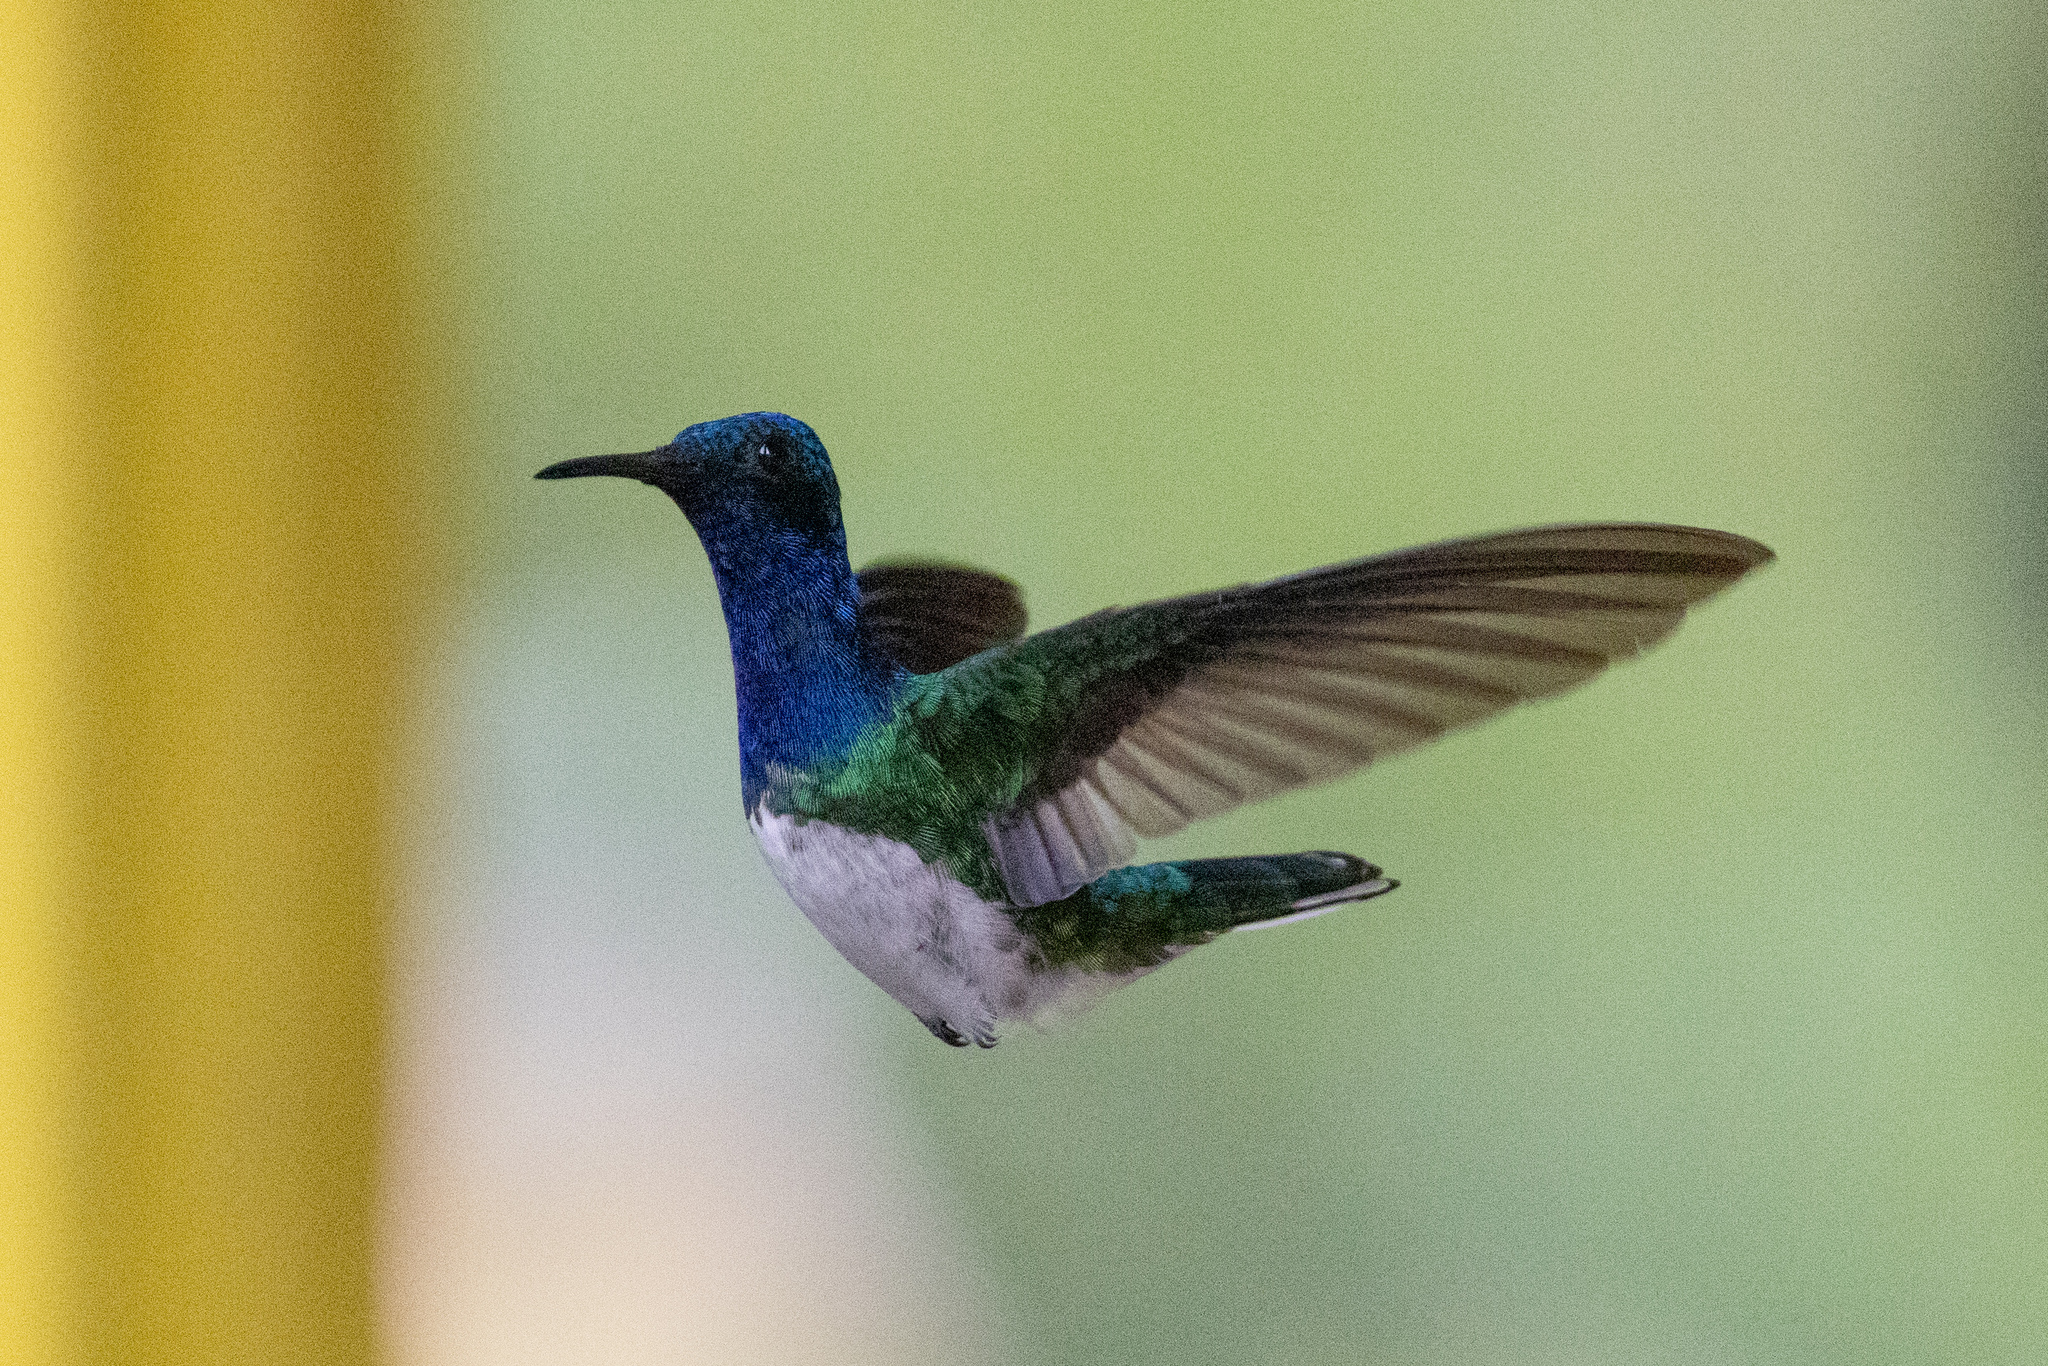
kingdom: Animalia
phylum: Chordata
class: Aves
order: Apodiformes
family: Trochilidae
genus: Florisuga
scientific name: Florisuga mellivora
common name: White-necked jacobin
